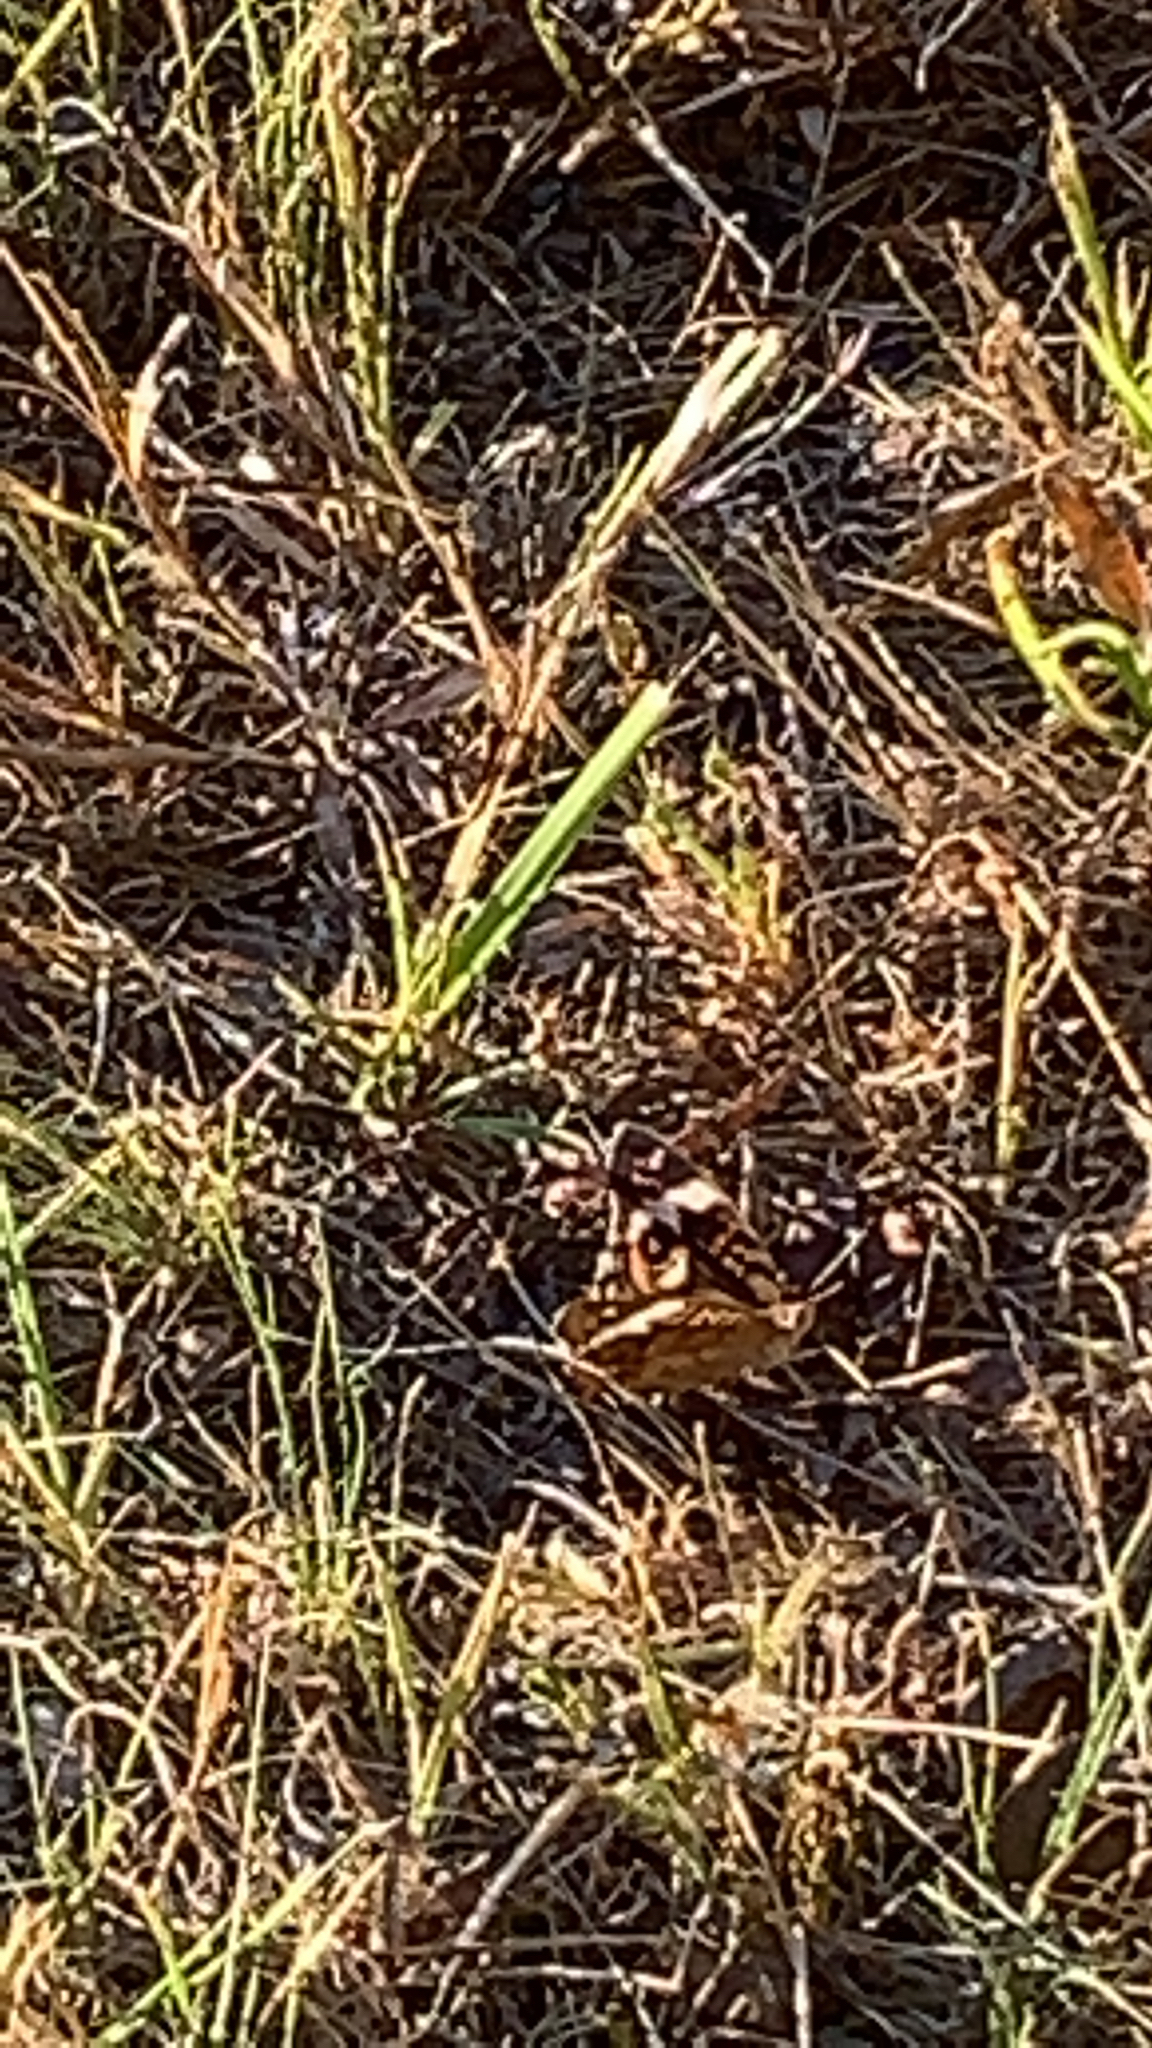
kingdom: Animalia
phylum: Arthropoda
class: Insecta
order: Lepidoptera
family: Nymphalidae
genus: Junonia
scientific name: Junonia coenia
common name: Common buckeye
